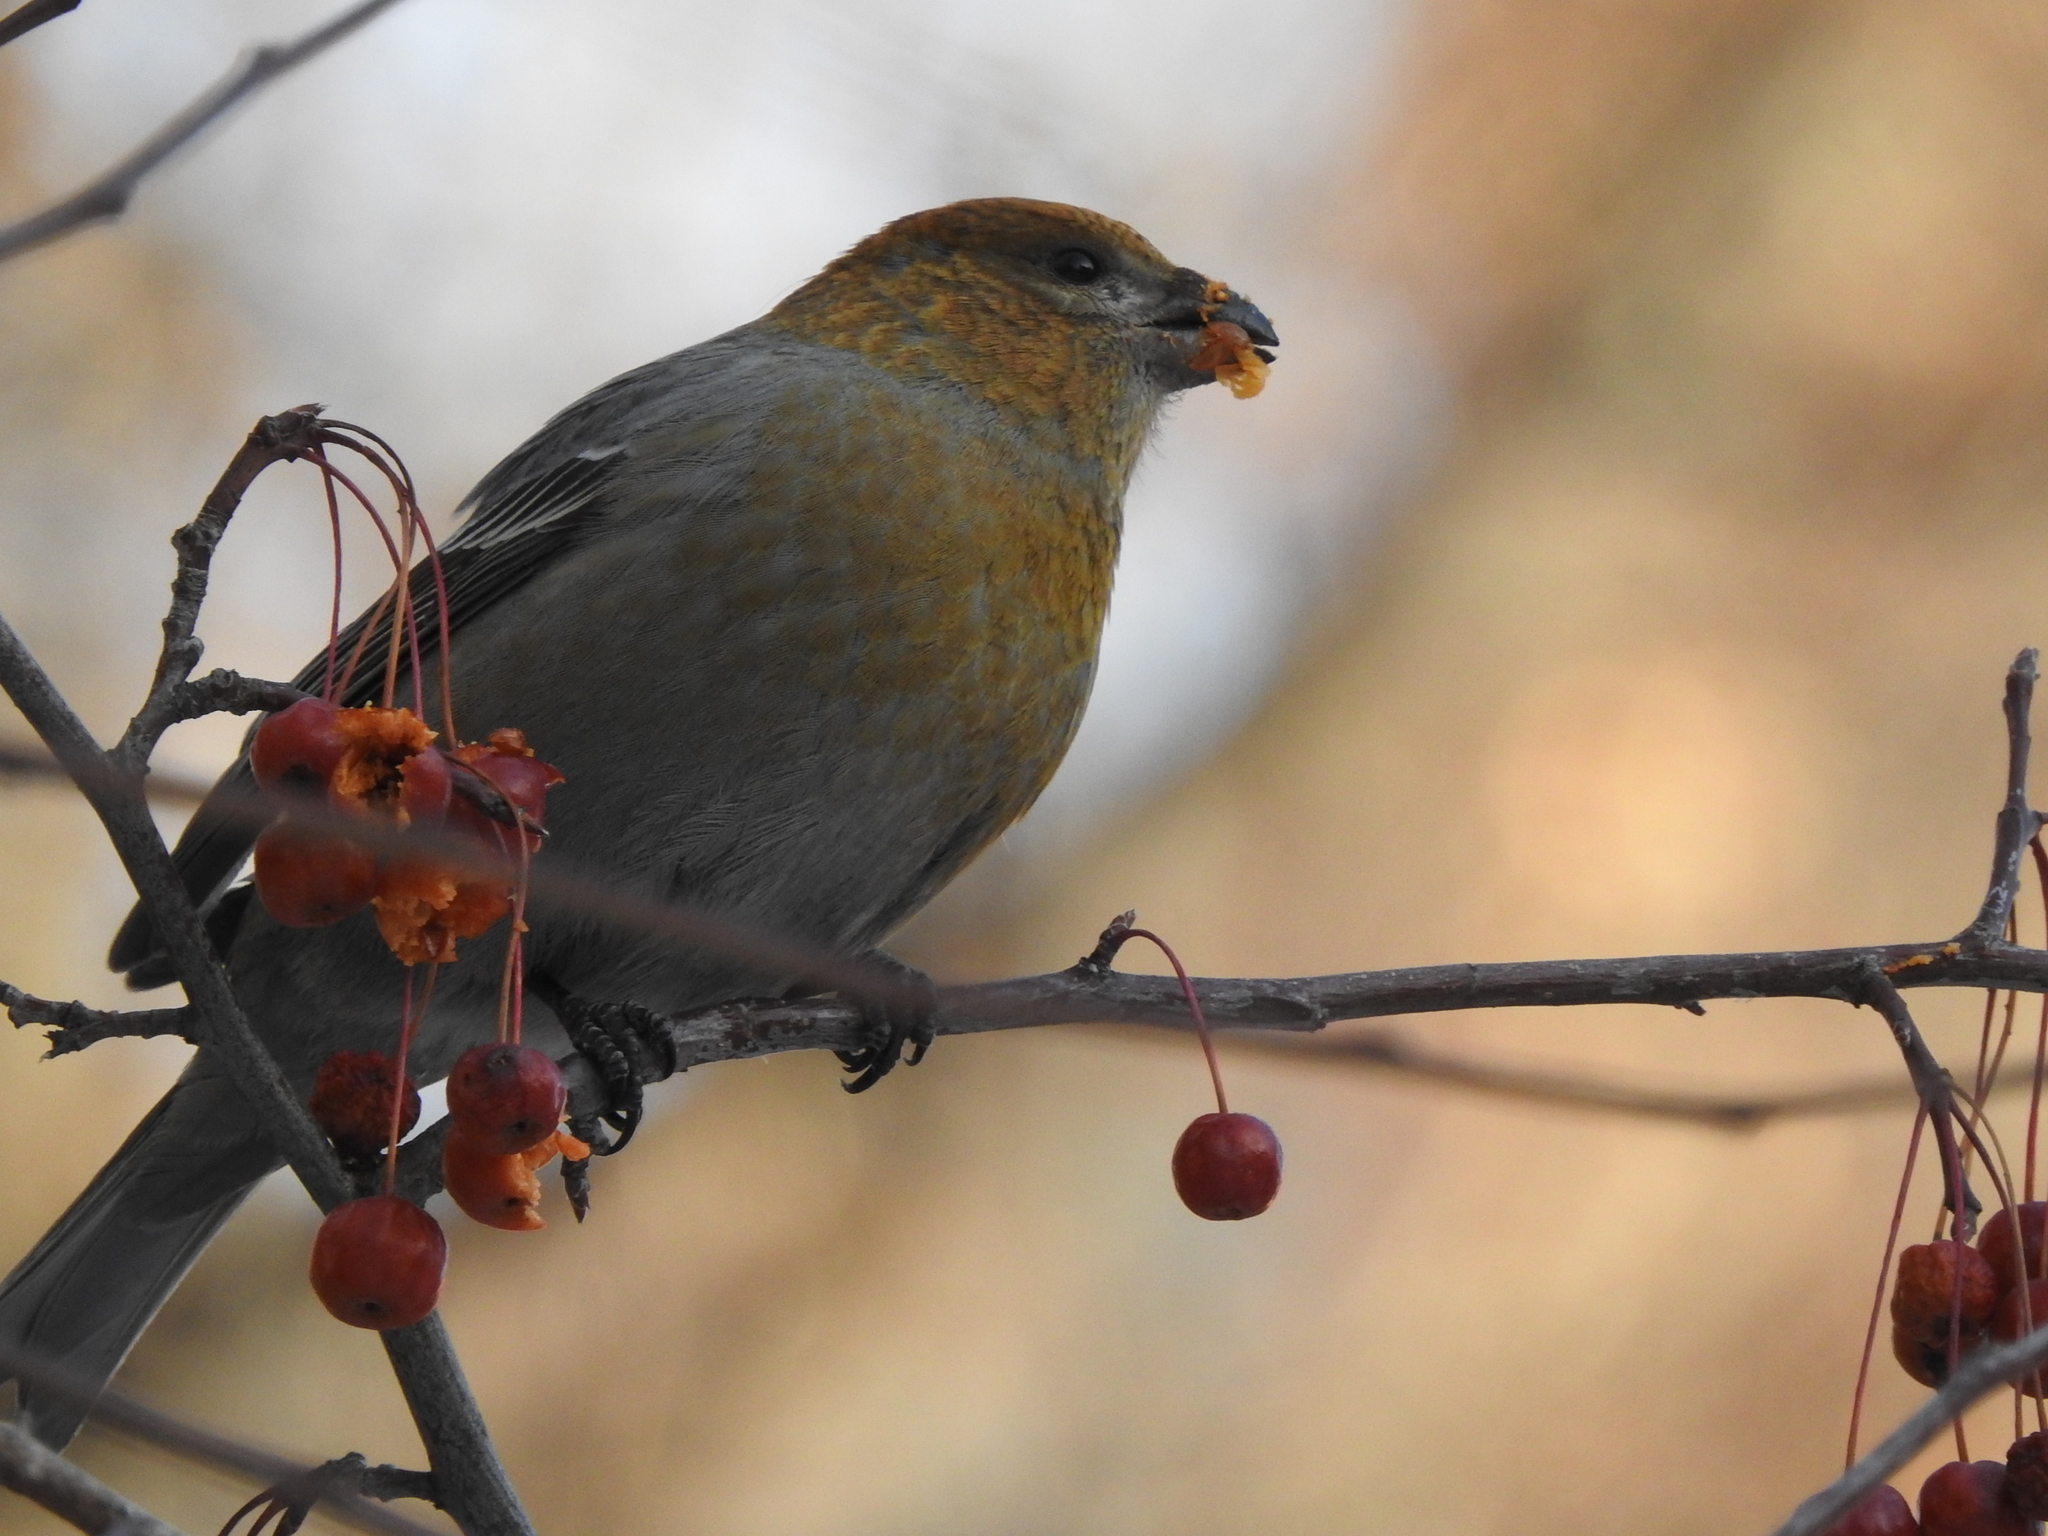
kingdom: Animalia
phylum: Chordata
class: Aves
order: Passeriformes
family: Fringillidae
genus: Pinicola
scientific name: Pinicola enucleator
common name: Pine grosbeak
